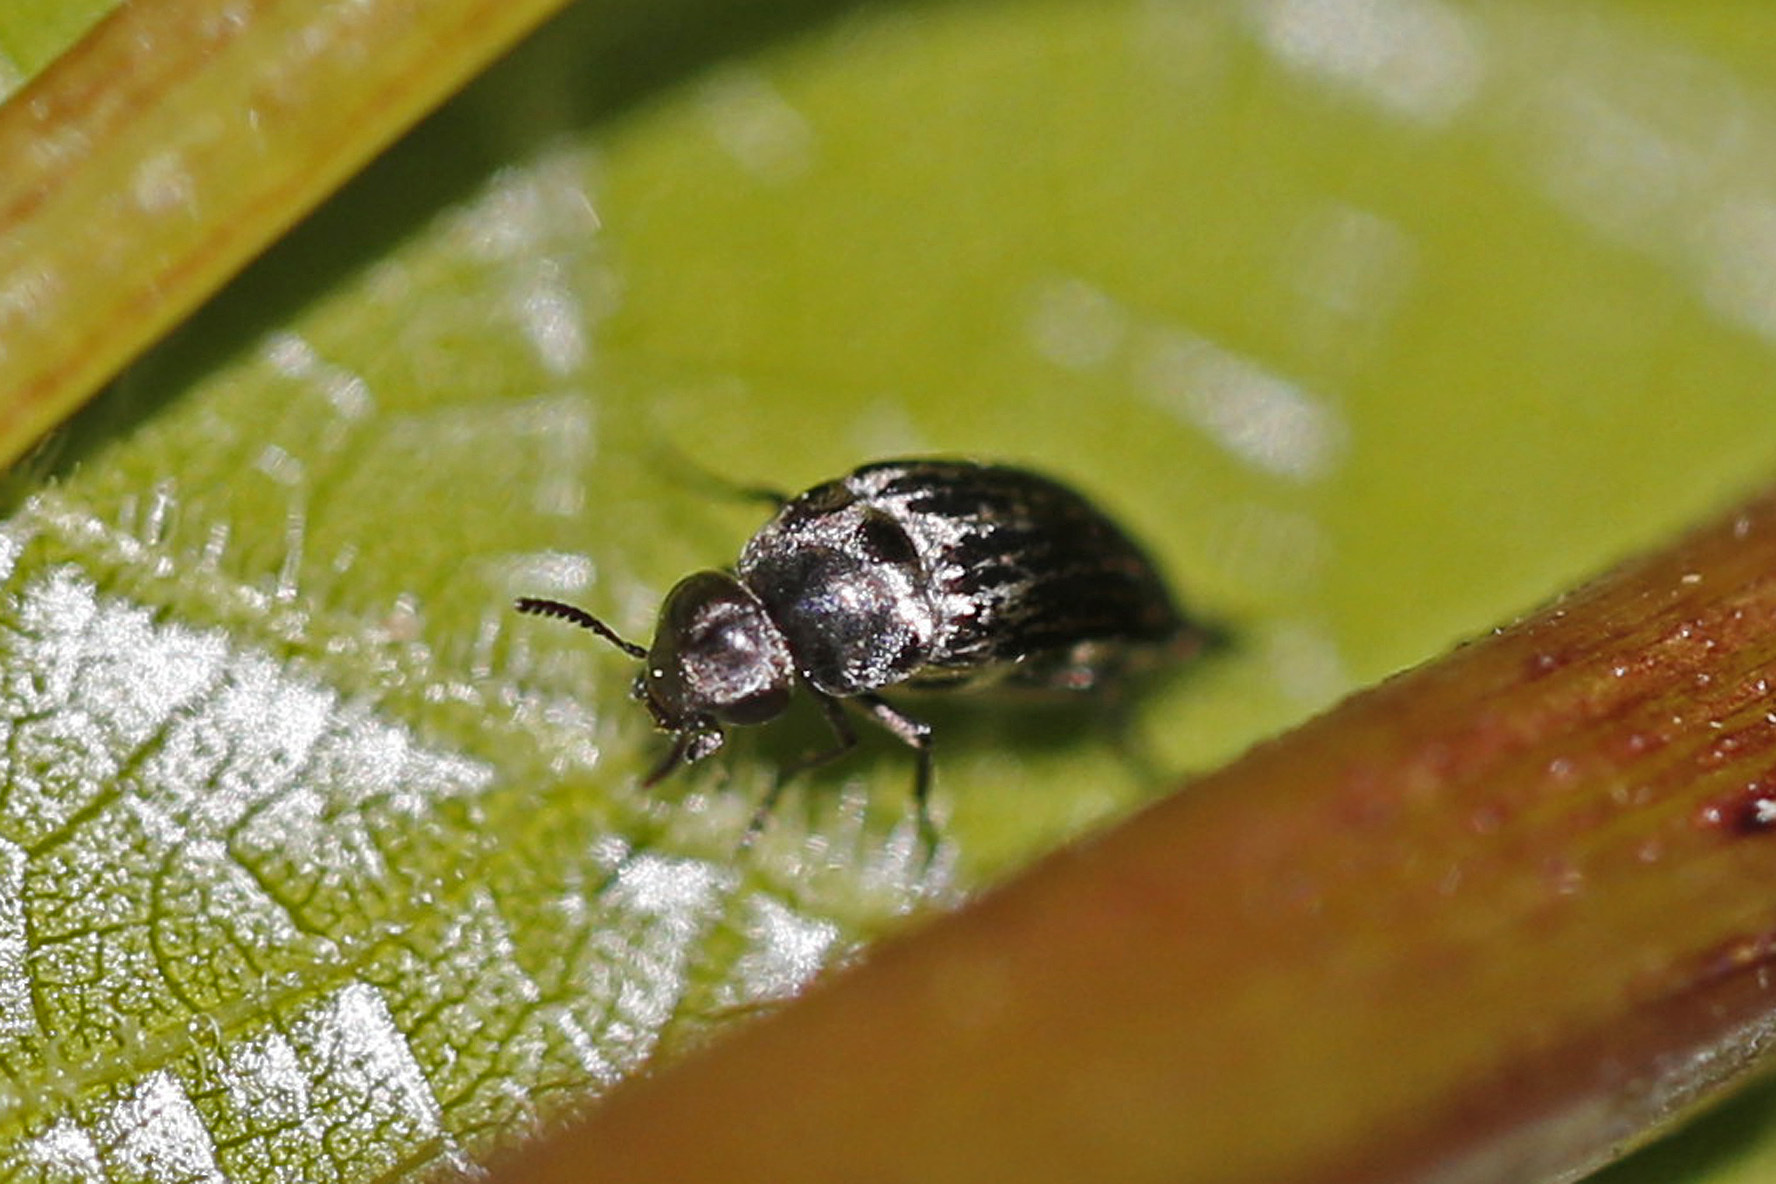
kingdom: Animalia
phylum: Arthropoda
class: Insecta
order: Coleoptera
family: Mordellidae
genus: Mordella
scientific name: Mordella marginata
